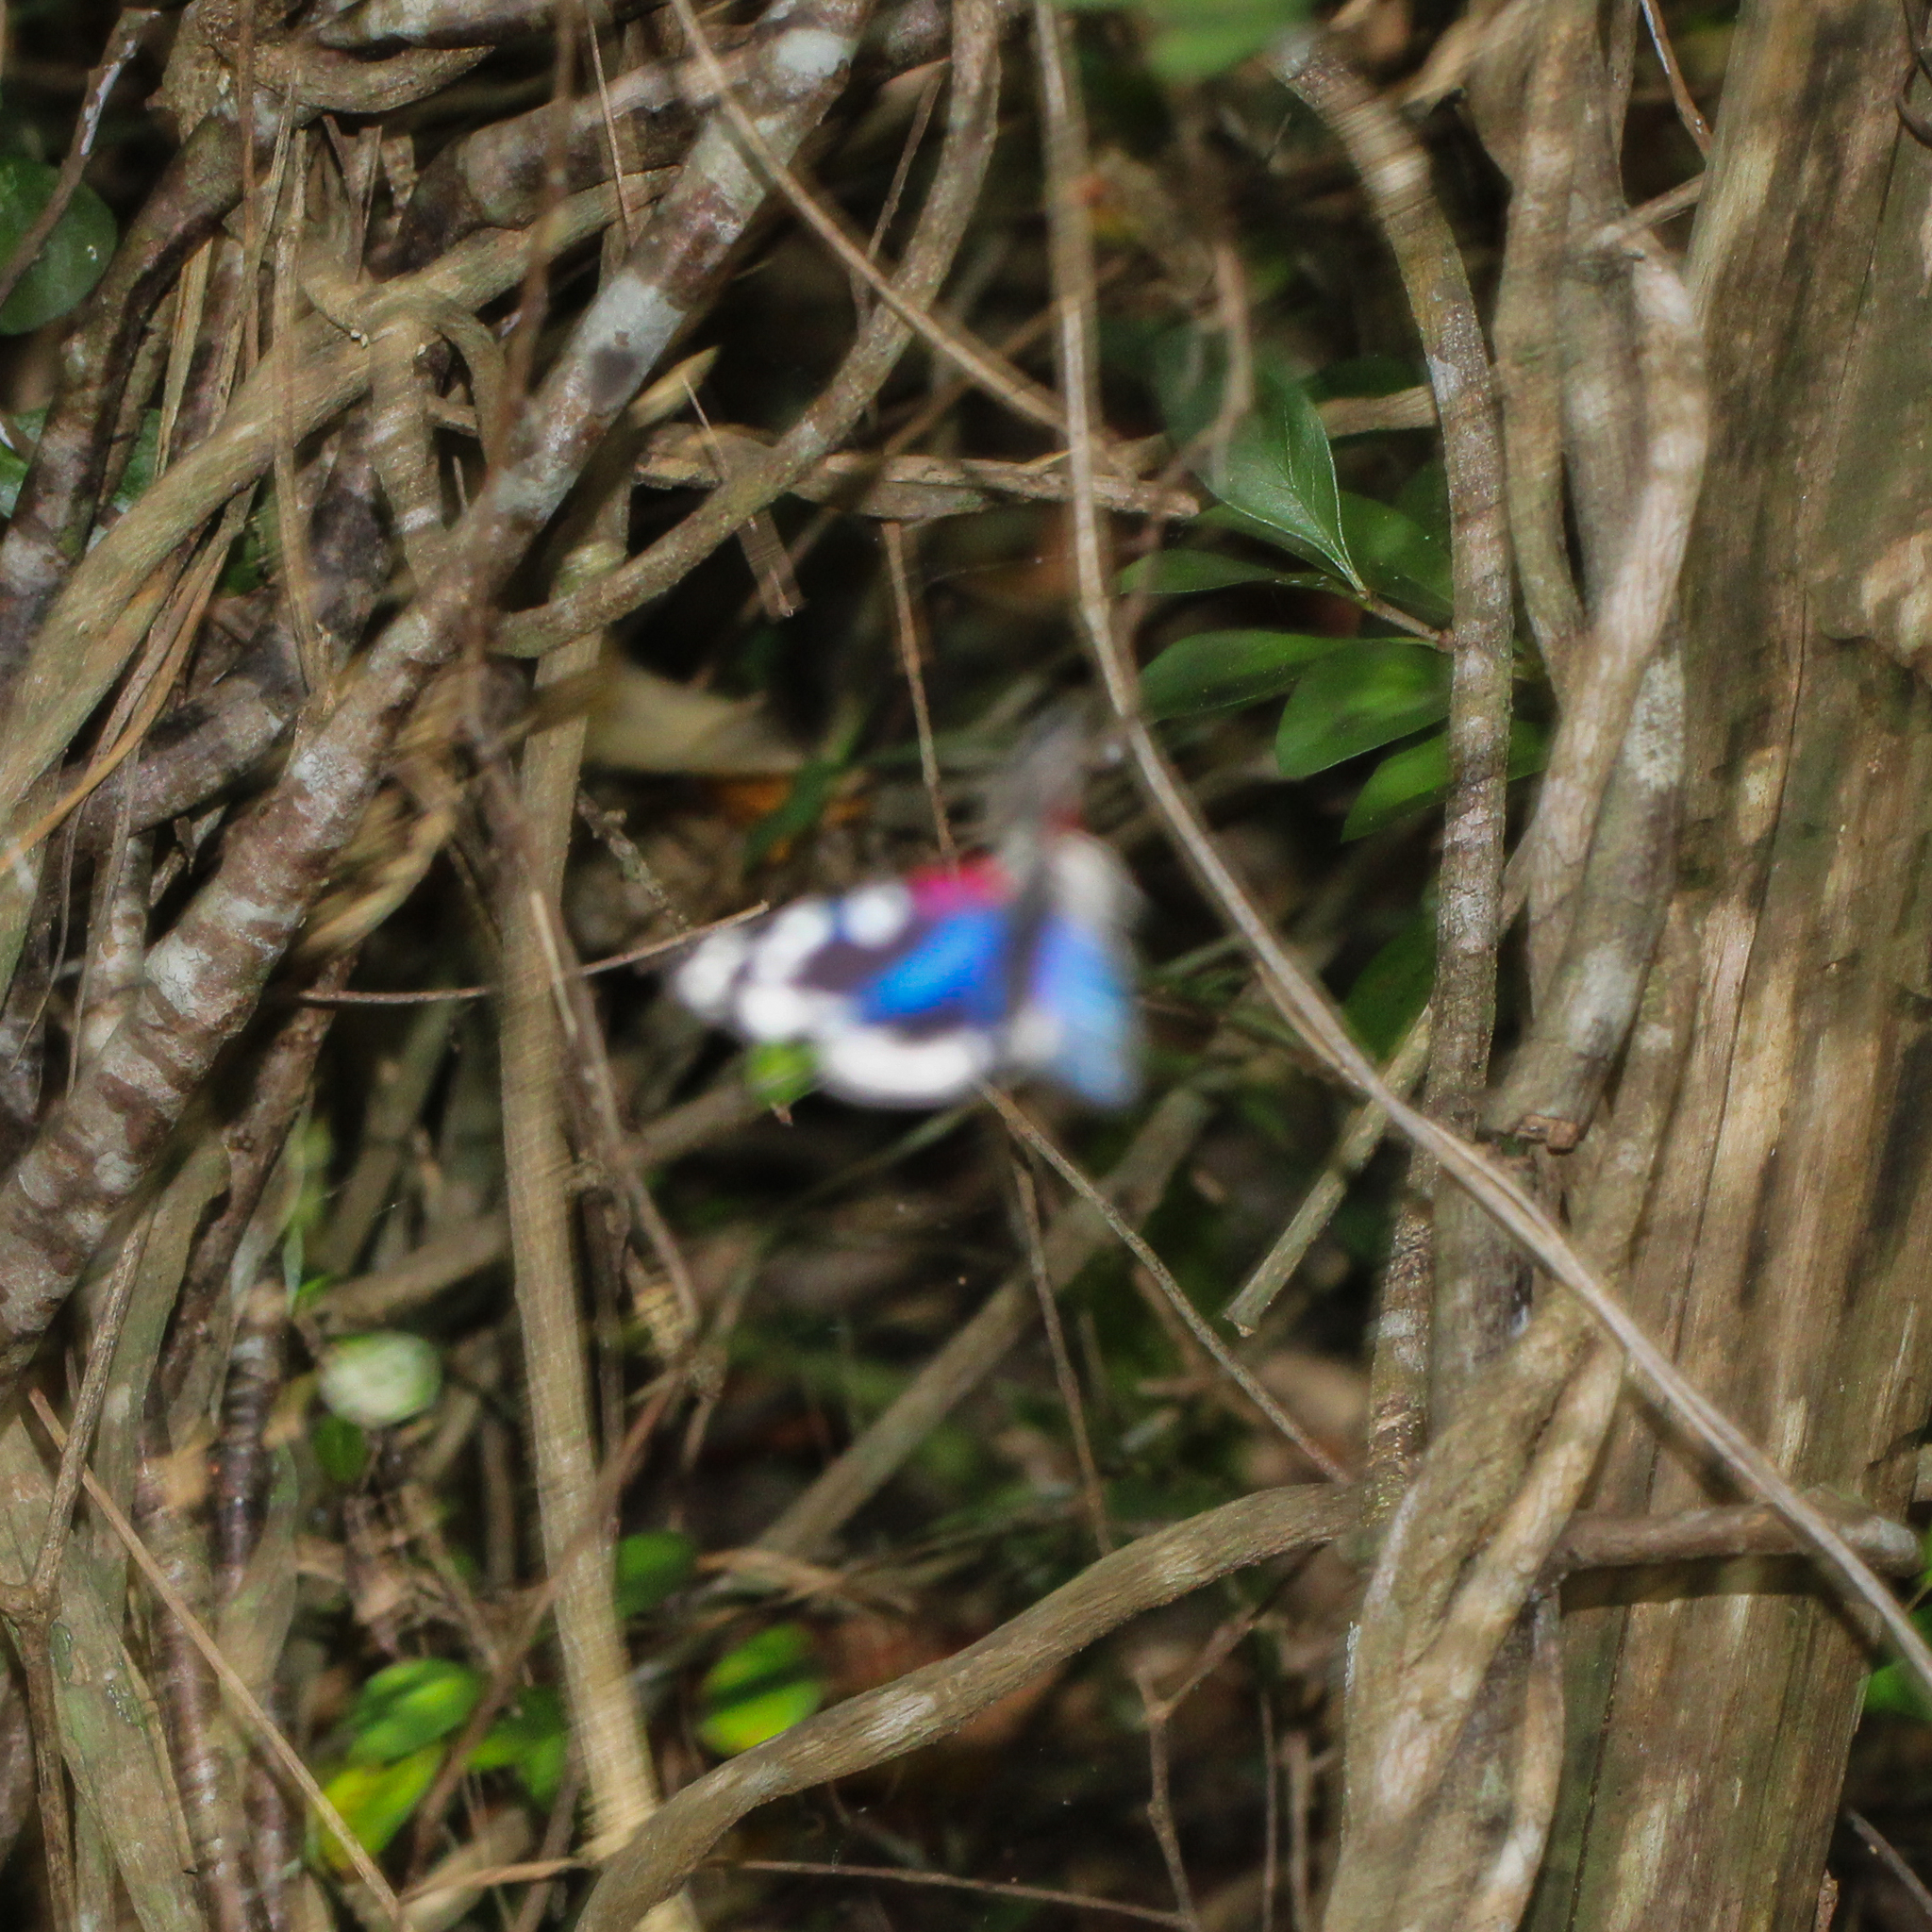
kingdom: Animalia
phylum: Arthropoda
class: Insecta
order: Lepidoptera
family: Erebidae
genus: Composia
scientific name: Composia fidelissima
